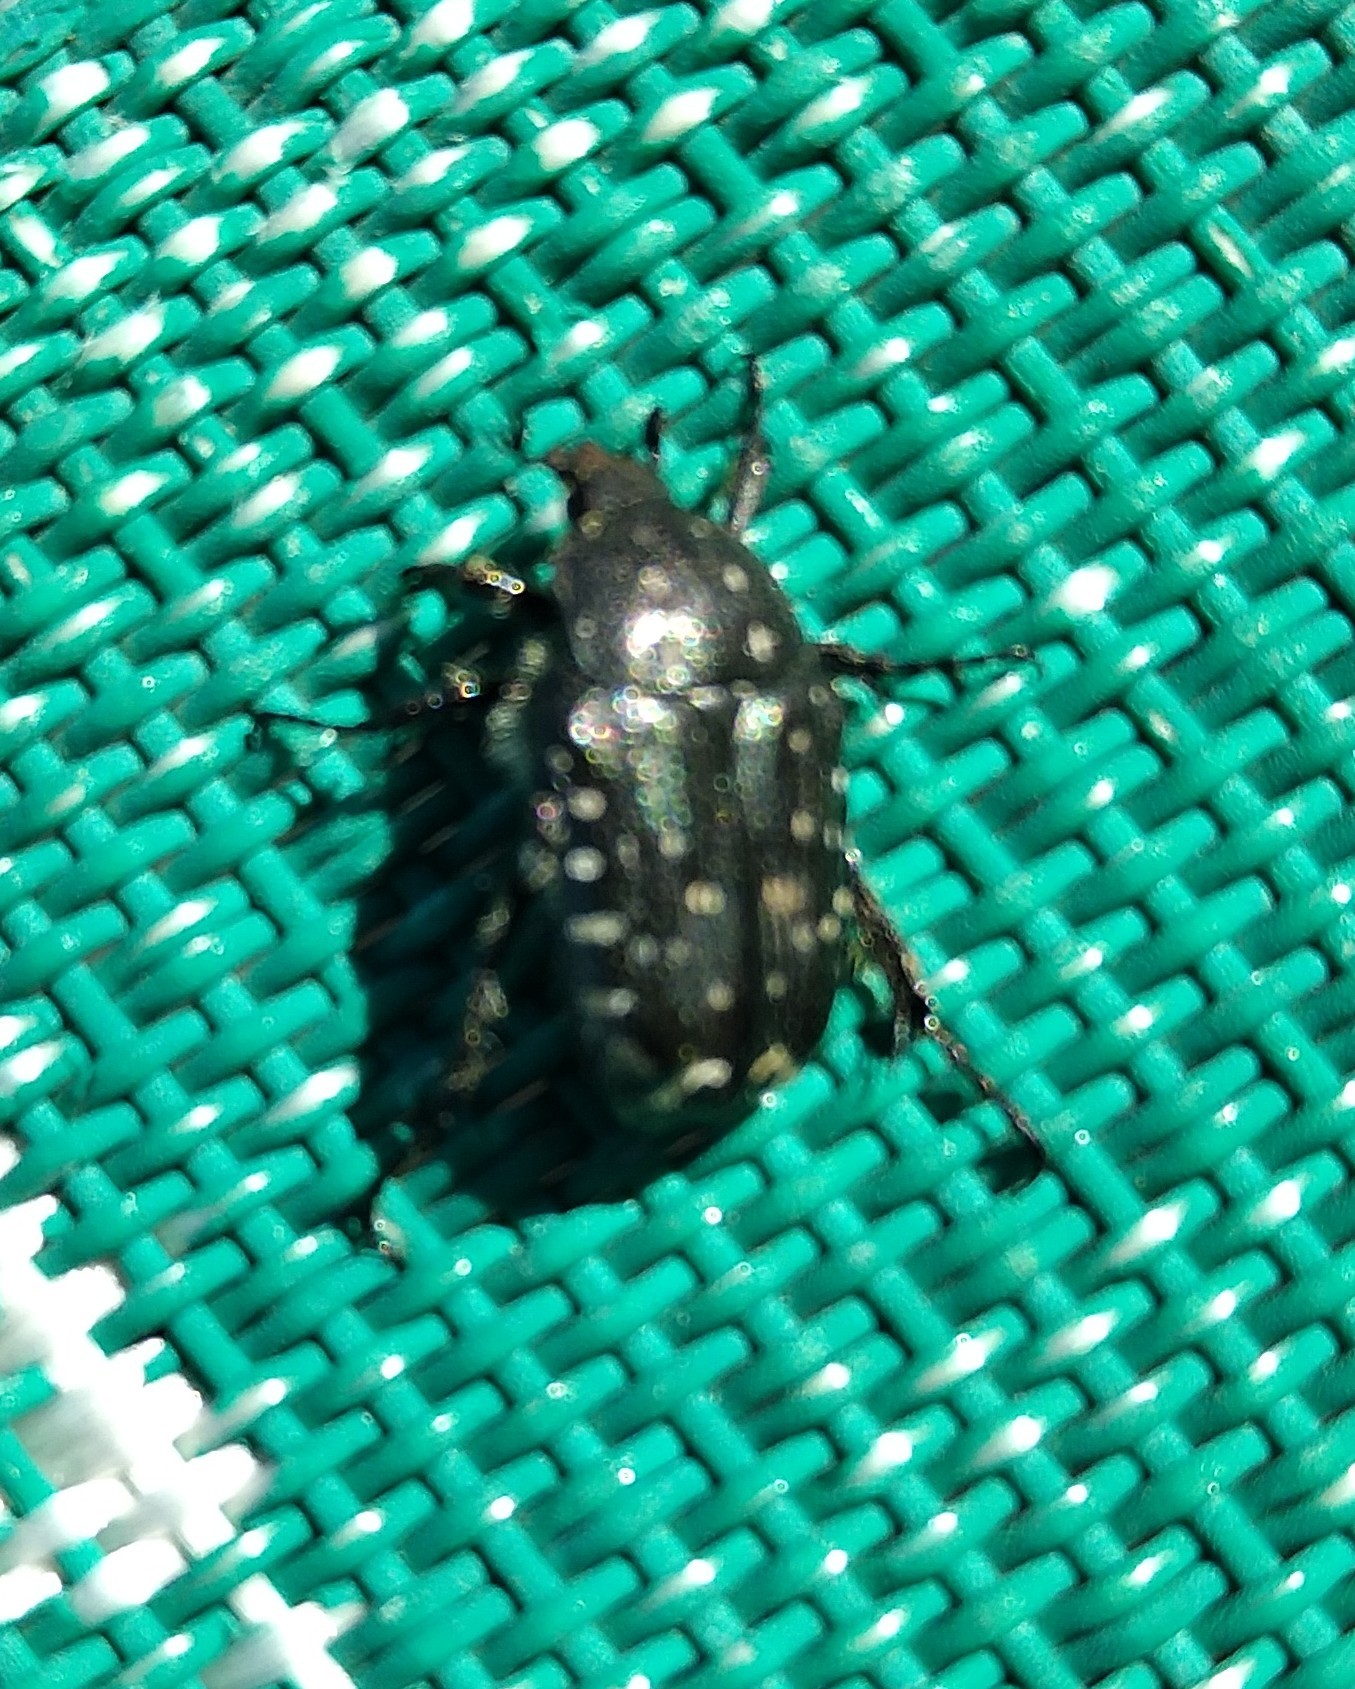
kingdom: Animalia
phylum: Arthropoda
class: Insecta
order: Coleoptera
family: Scarabaeidae
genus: Oxythyrea
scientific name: Oxythyrea funesta
